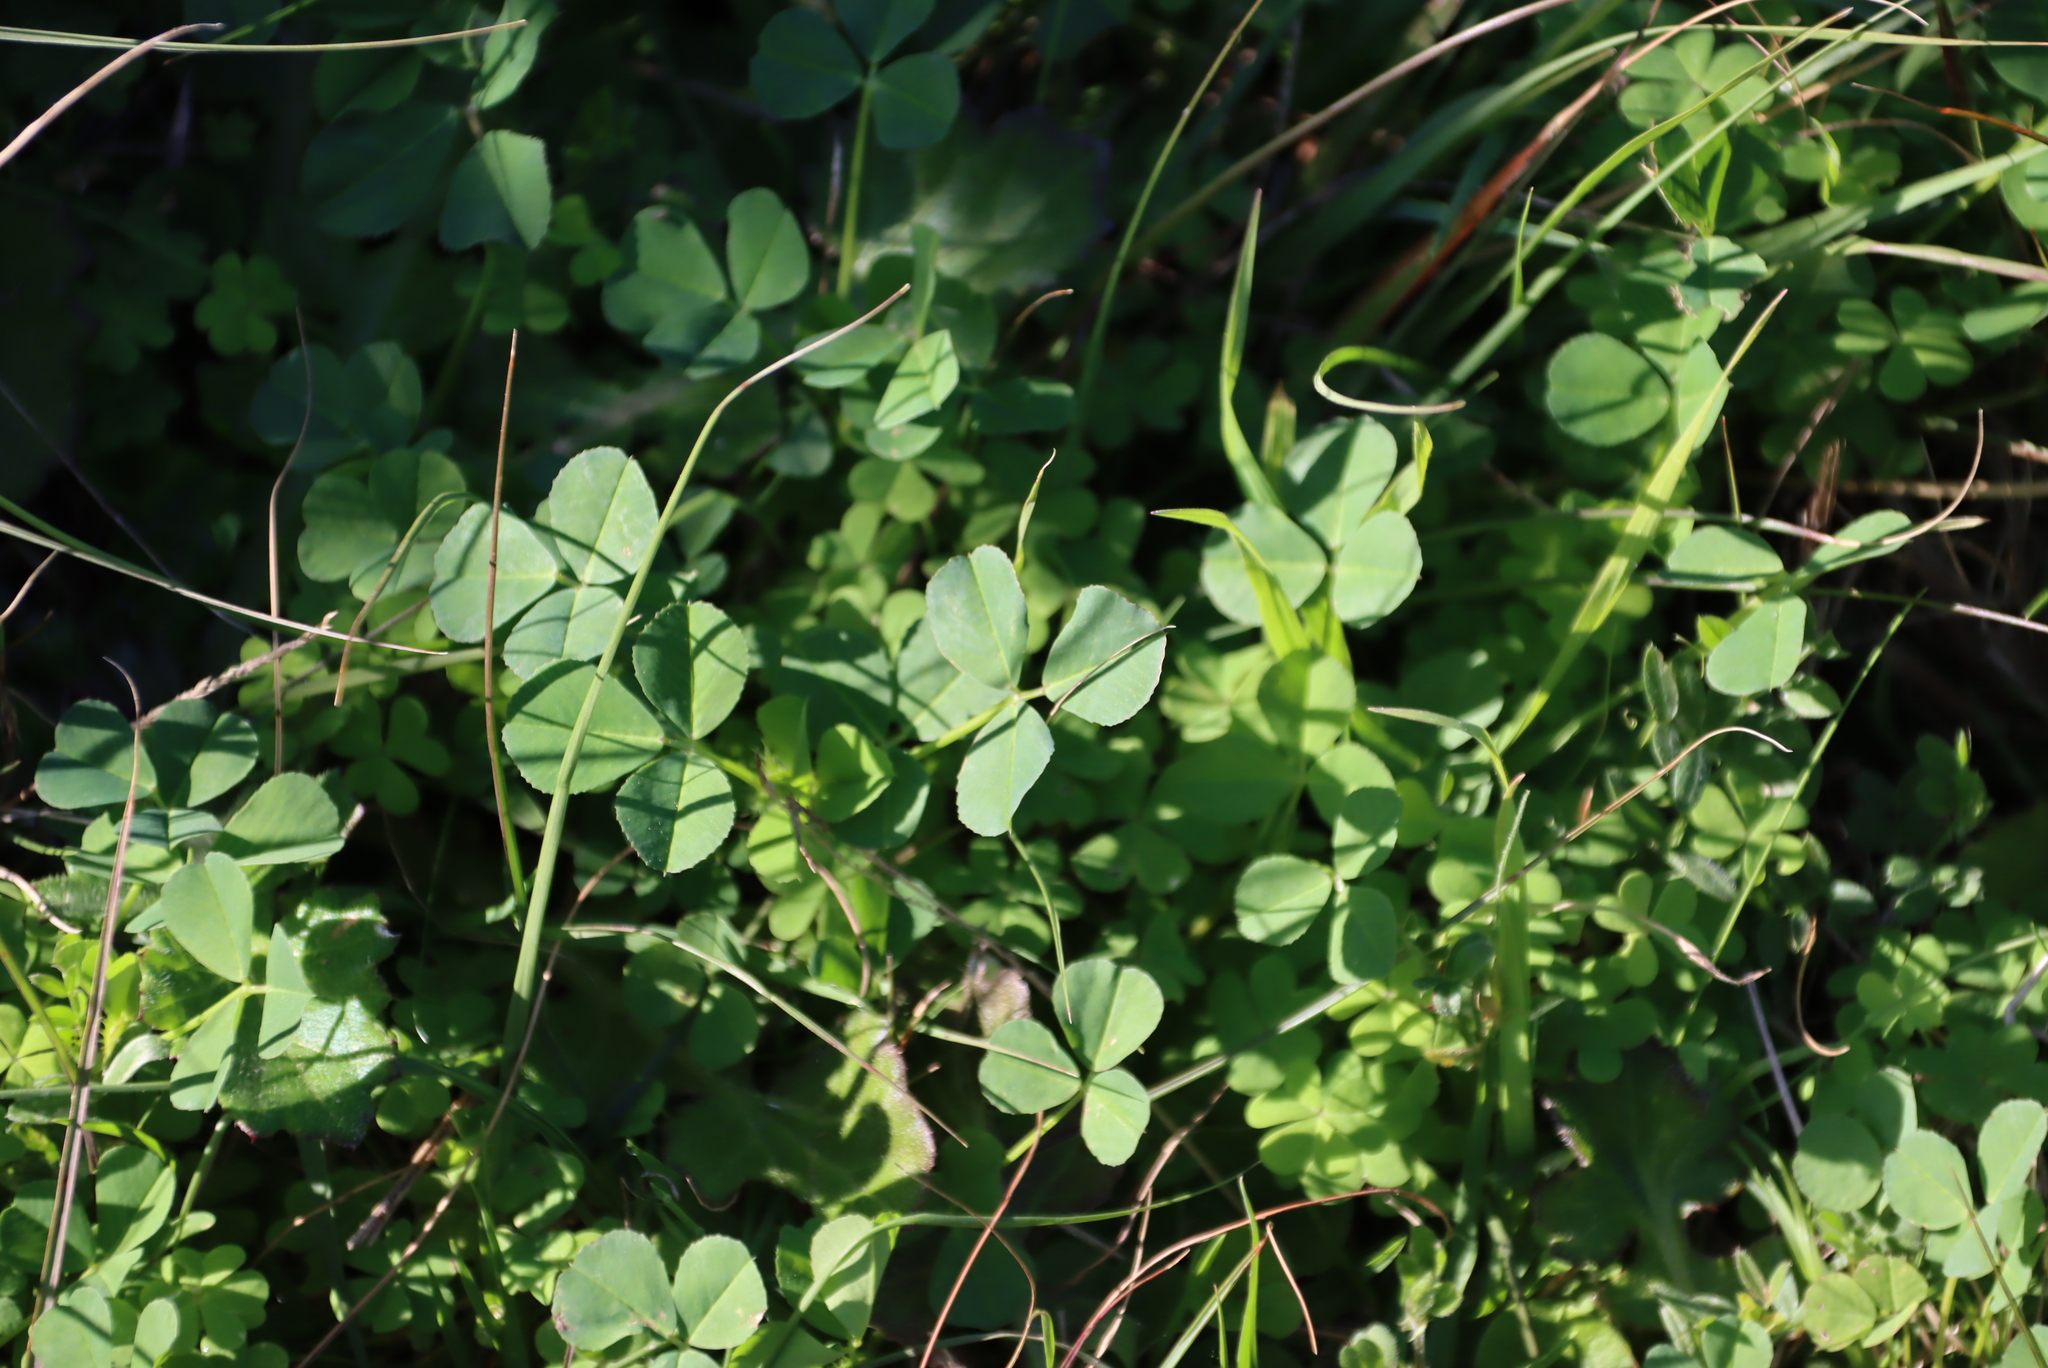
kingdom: Plantae
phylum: Tracheophyta
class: Magnoliopsida
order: Fabales
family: Fabaceae
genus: Medicago
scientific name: Medicago polymorpha
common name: Burclover
